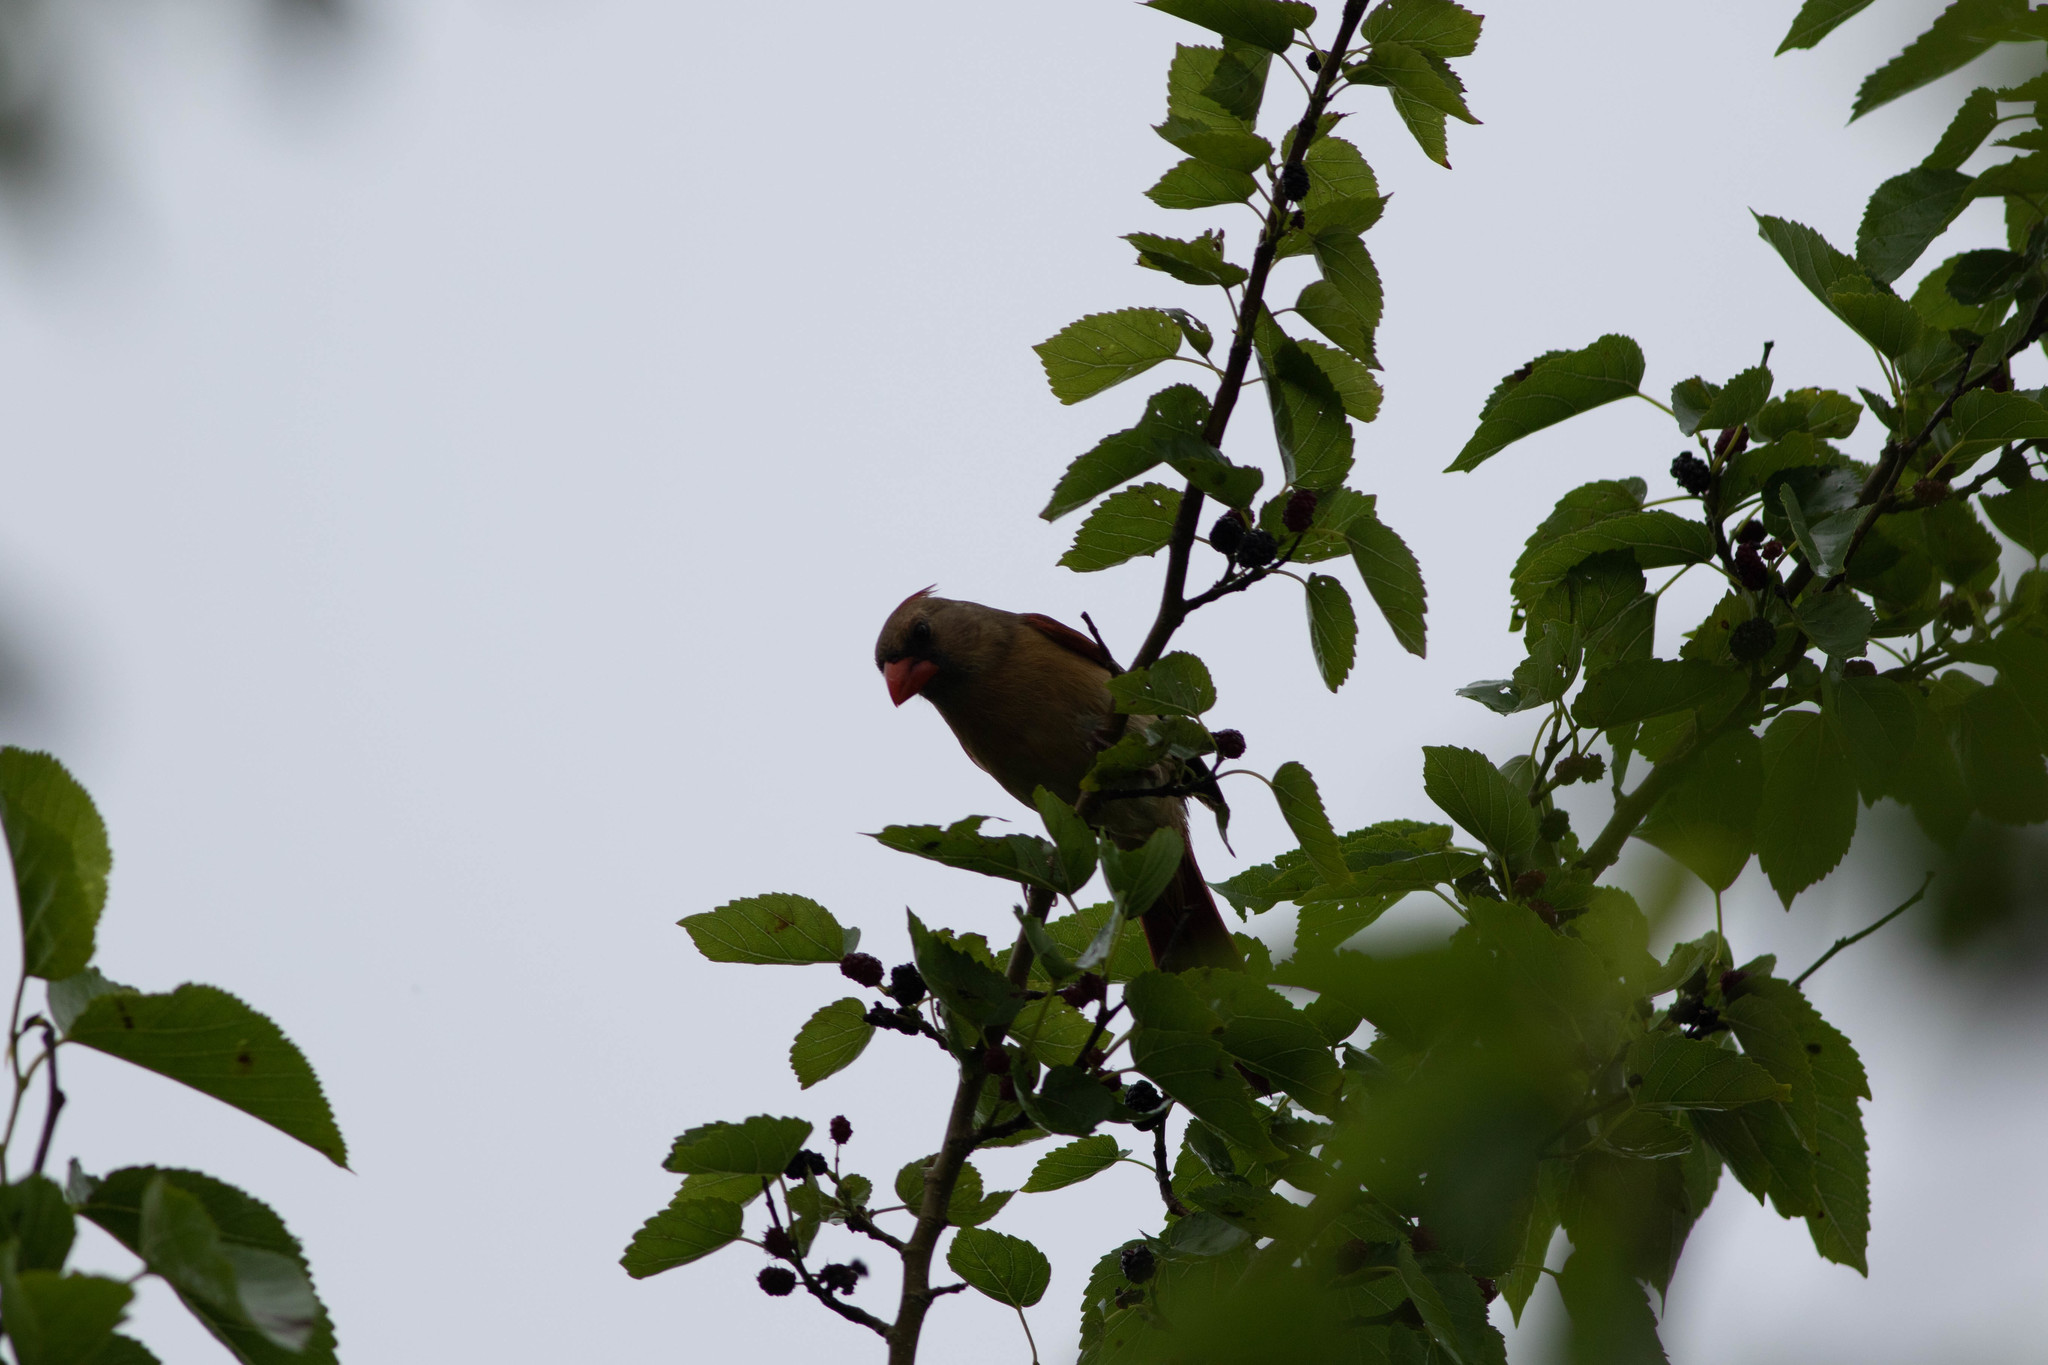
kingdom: Animalia
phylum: Chordata
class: Aves
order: Passeriformes
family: Cardinalidae
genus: Cardinalis
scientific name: Cardinalis cardinalis
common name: Northern cardinal
